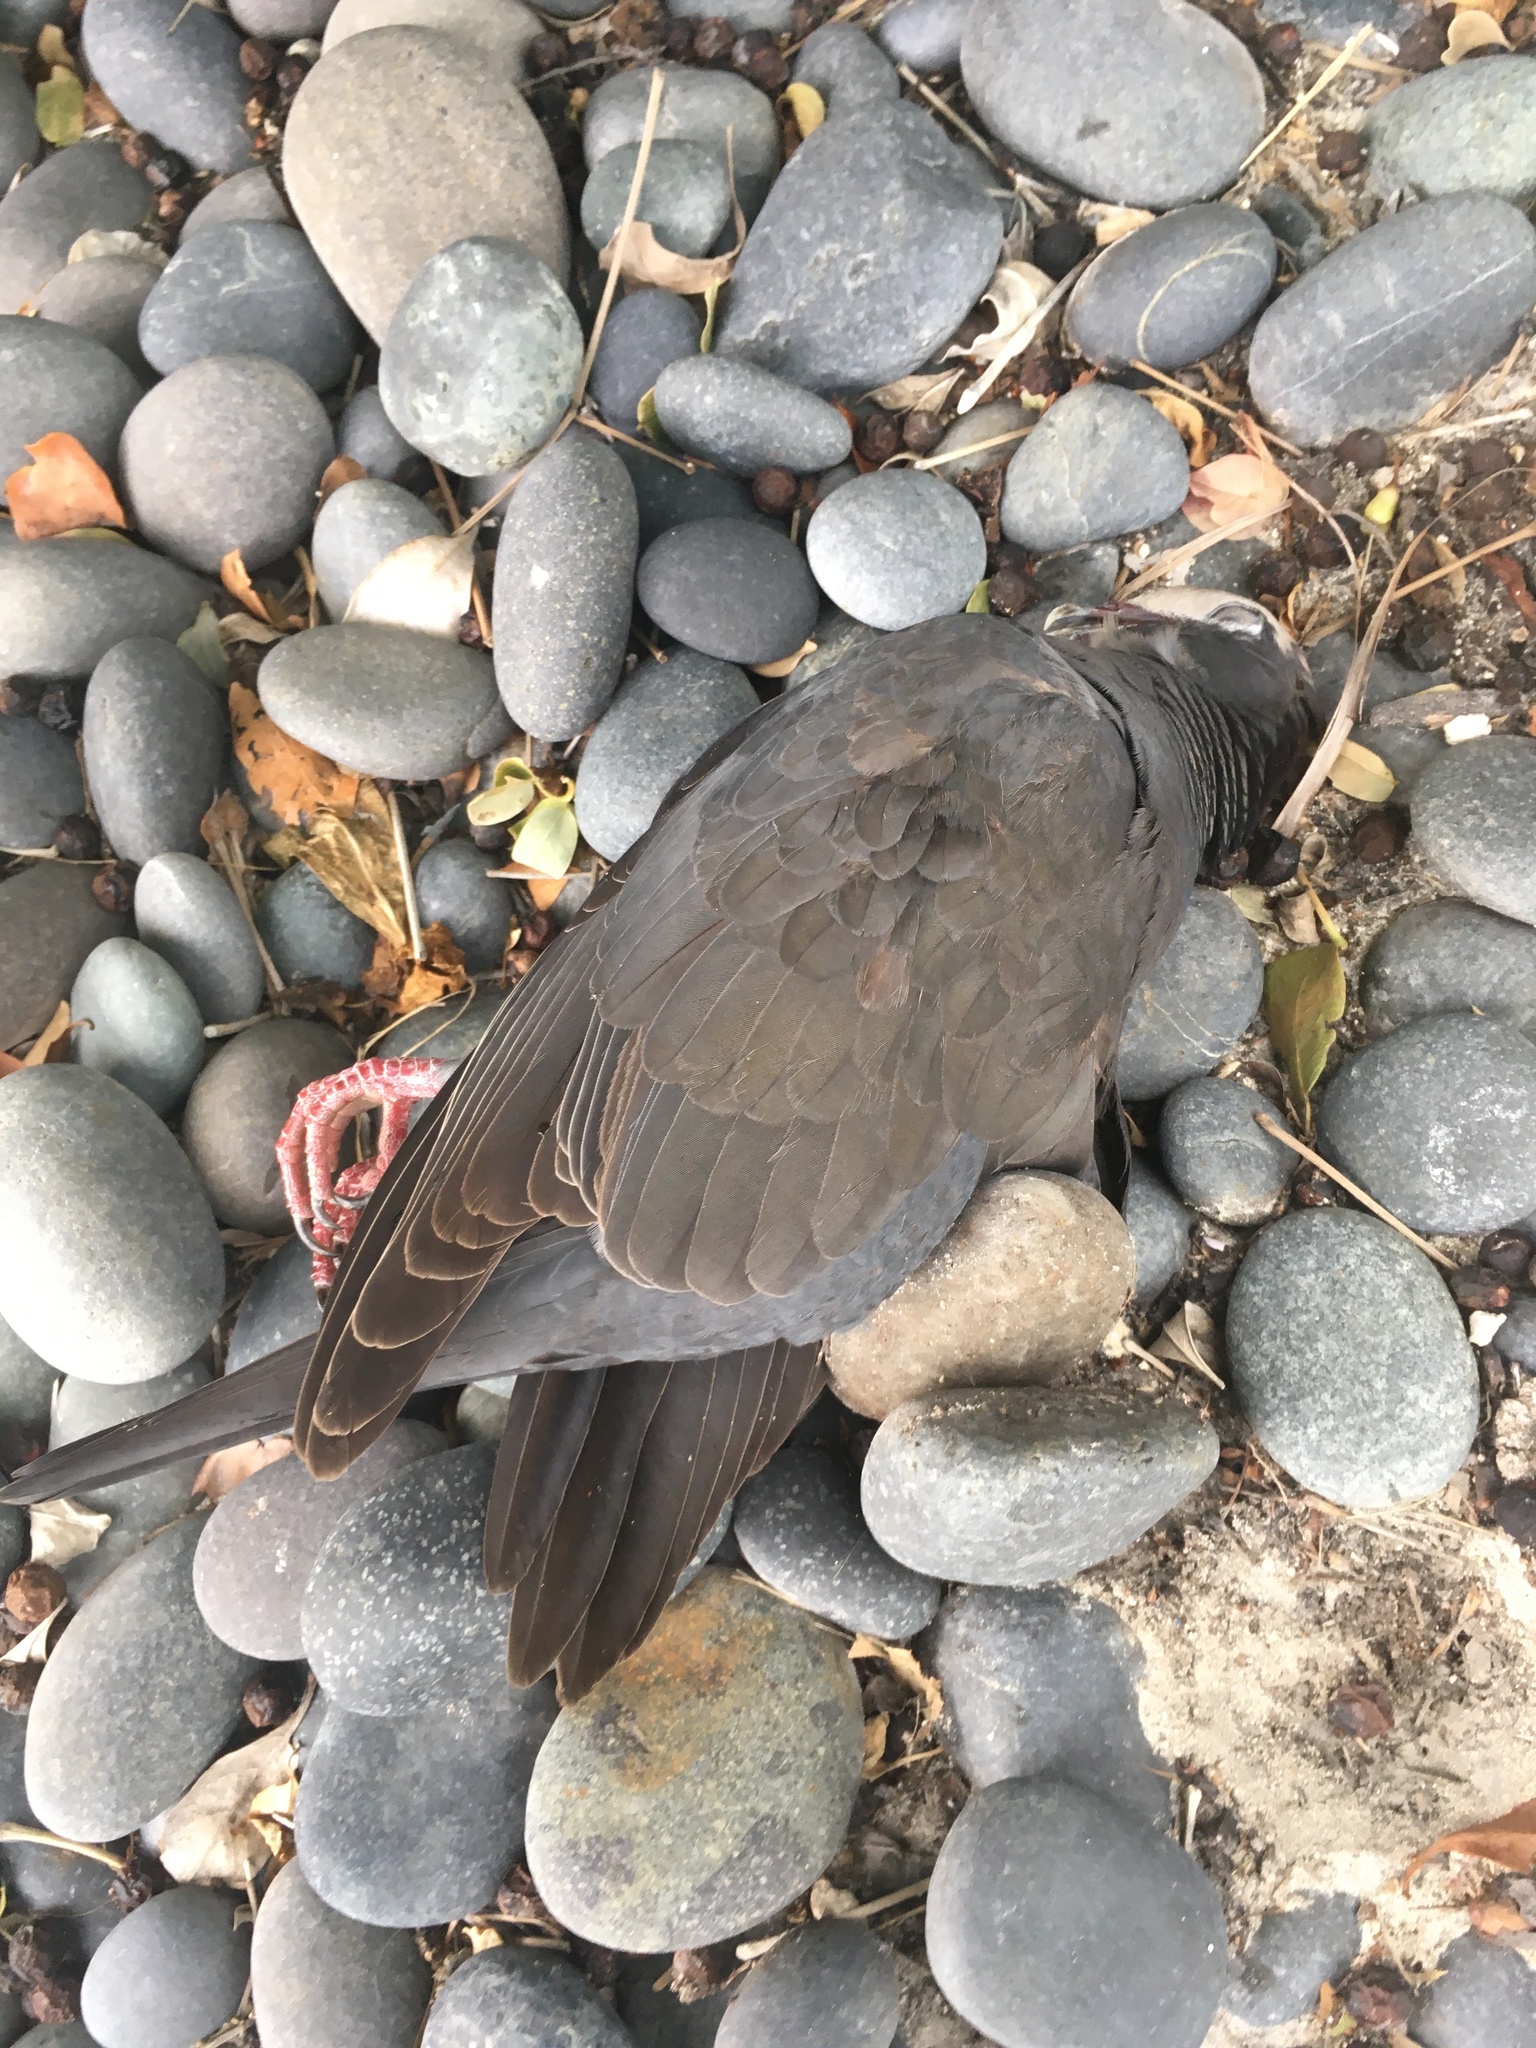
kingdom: Animalia
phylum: Chordata
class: Aves
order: Columbiformes
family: Columbidae
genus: Patagioenas
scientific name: Patagioenas leucocephala
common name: White-crowned pigeon
